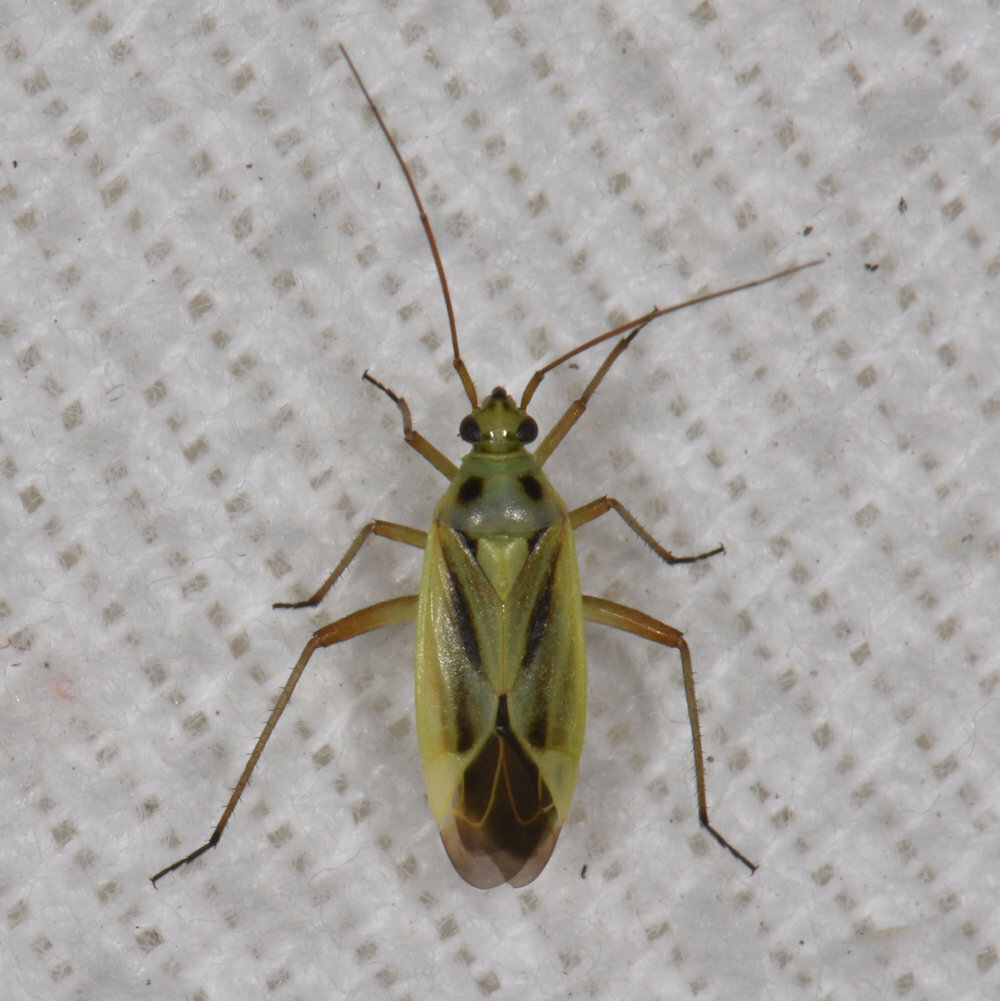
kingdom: Animalia
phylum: Arthropoda
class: Insecta
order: Hemiptera
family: Miridae
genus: Stenotus
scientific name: Stenotus binotatus
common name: Plant bug
